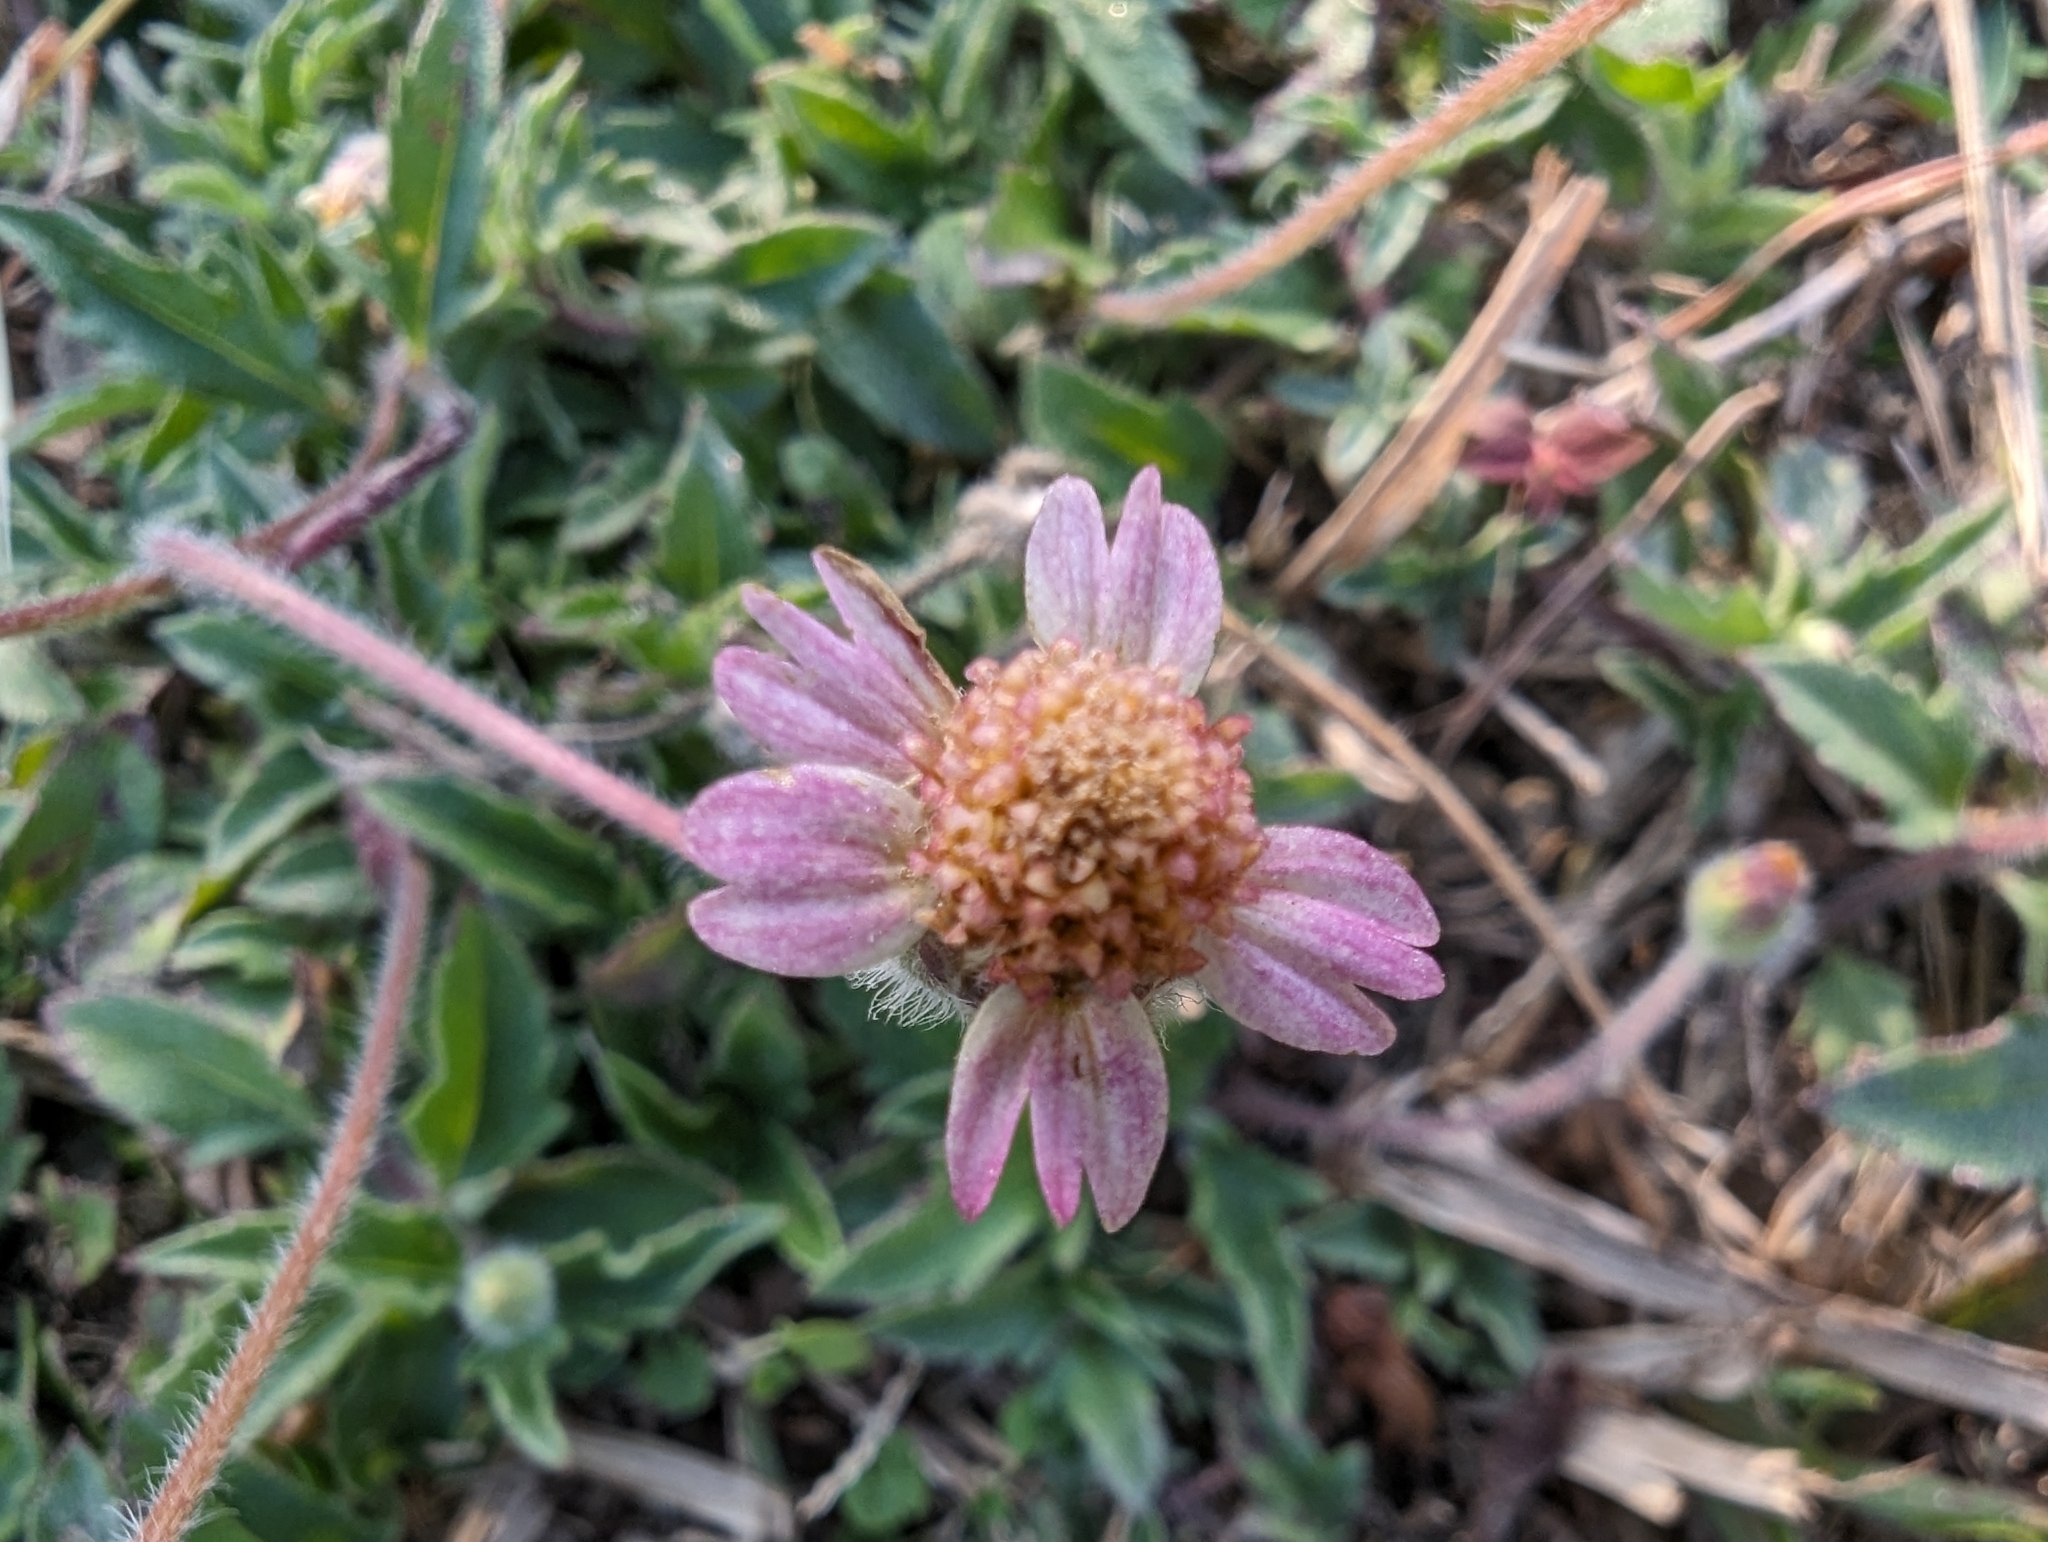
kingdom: Plantae
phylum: Tracheophyta
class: Magnoliopsida
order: Asterales
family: Asteraceae
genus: Tridax
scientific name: Tridax procumbens
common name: Coatbuttons
